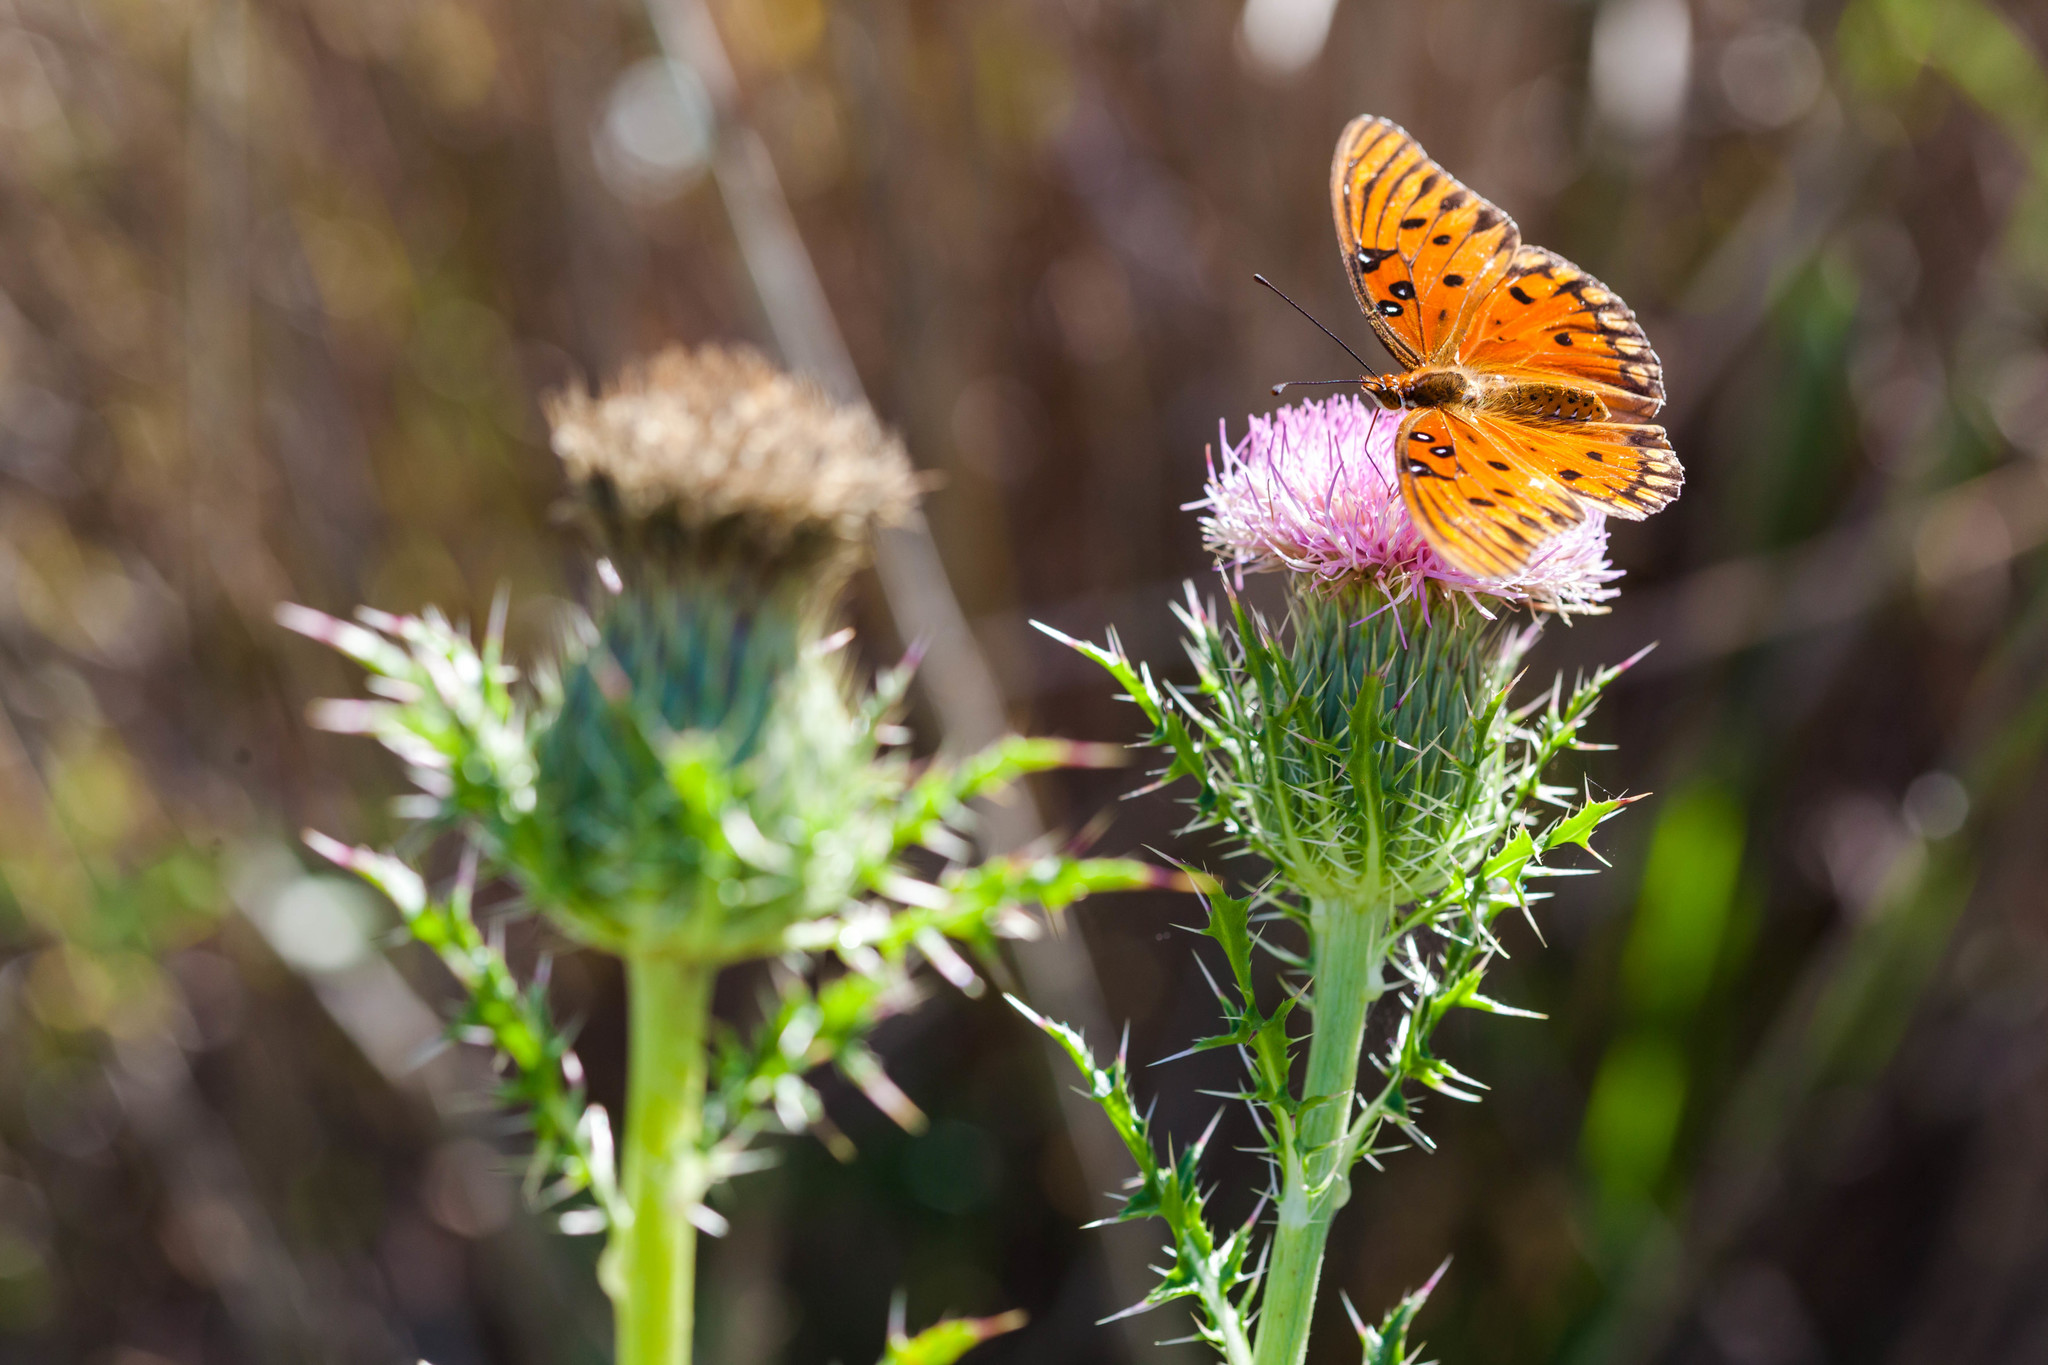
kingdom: Animalia
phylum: Arthropoda
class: Insecta
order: Lepidoptera
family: Nymphalidae
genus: Dione
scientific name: Dione vanillae
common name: Gulf fritillary
